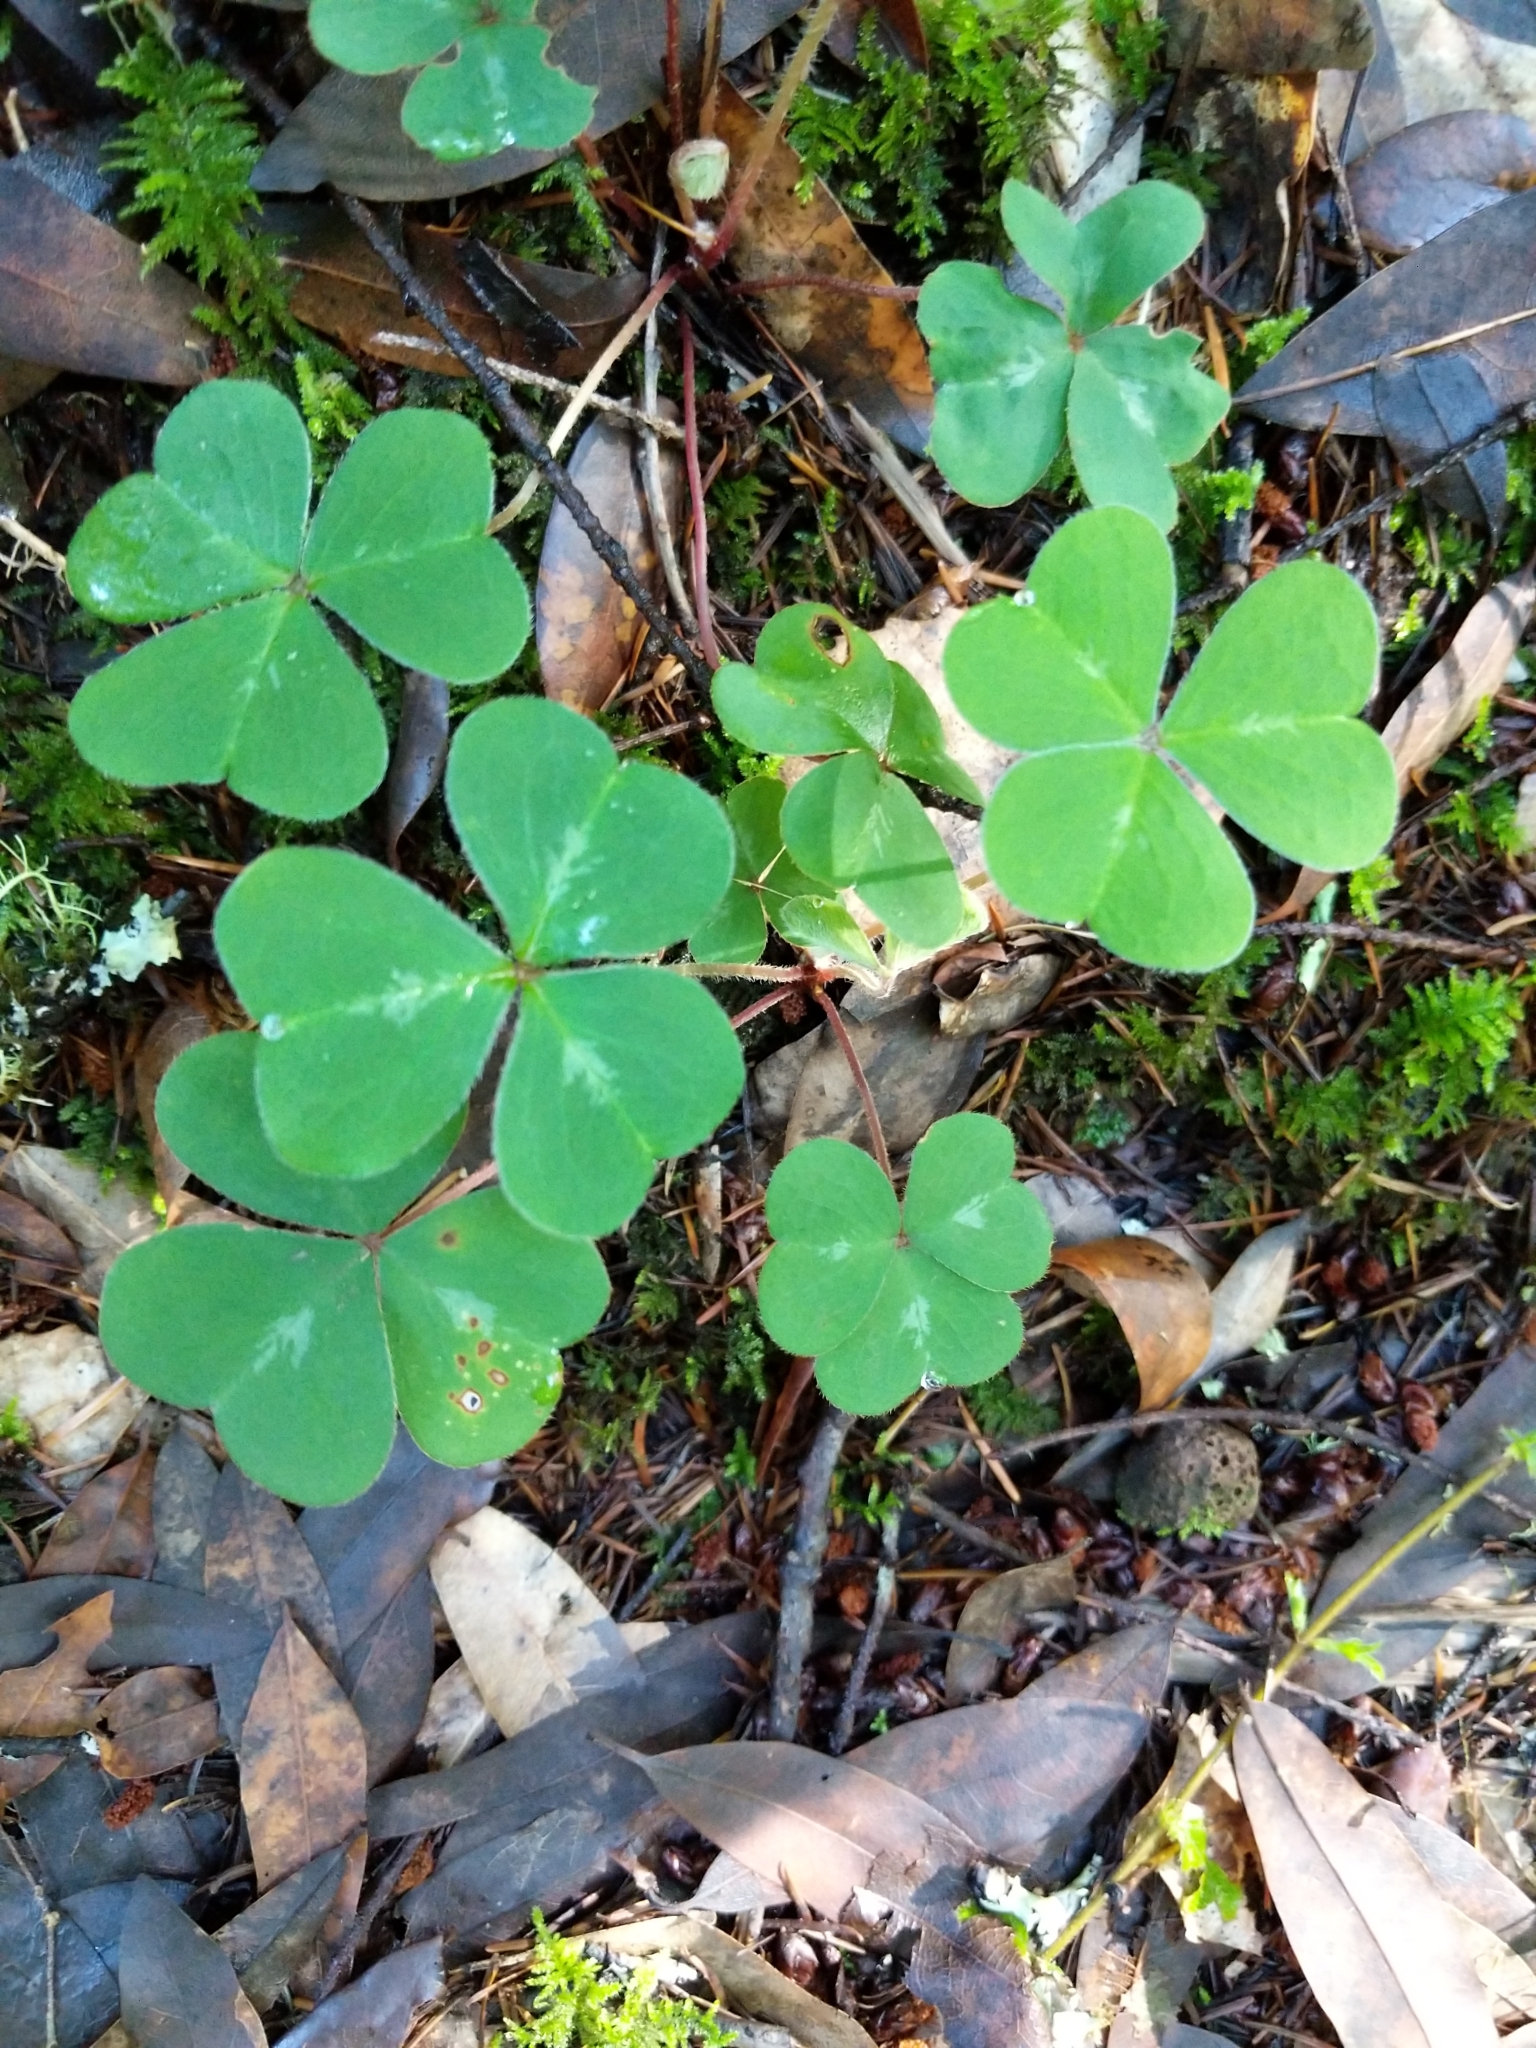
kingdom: Plantae
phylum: Tracheophyta
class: Magnoliopsida
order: Oxalidales
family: Oxalidaceae
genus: Oxalis
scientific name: Oxalis oregana
